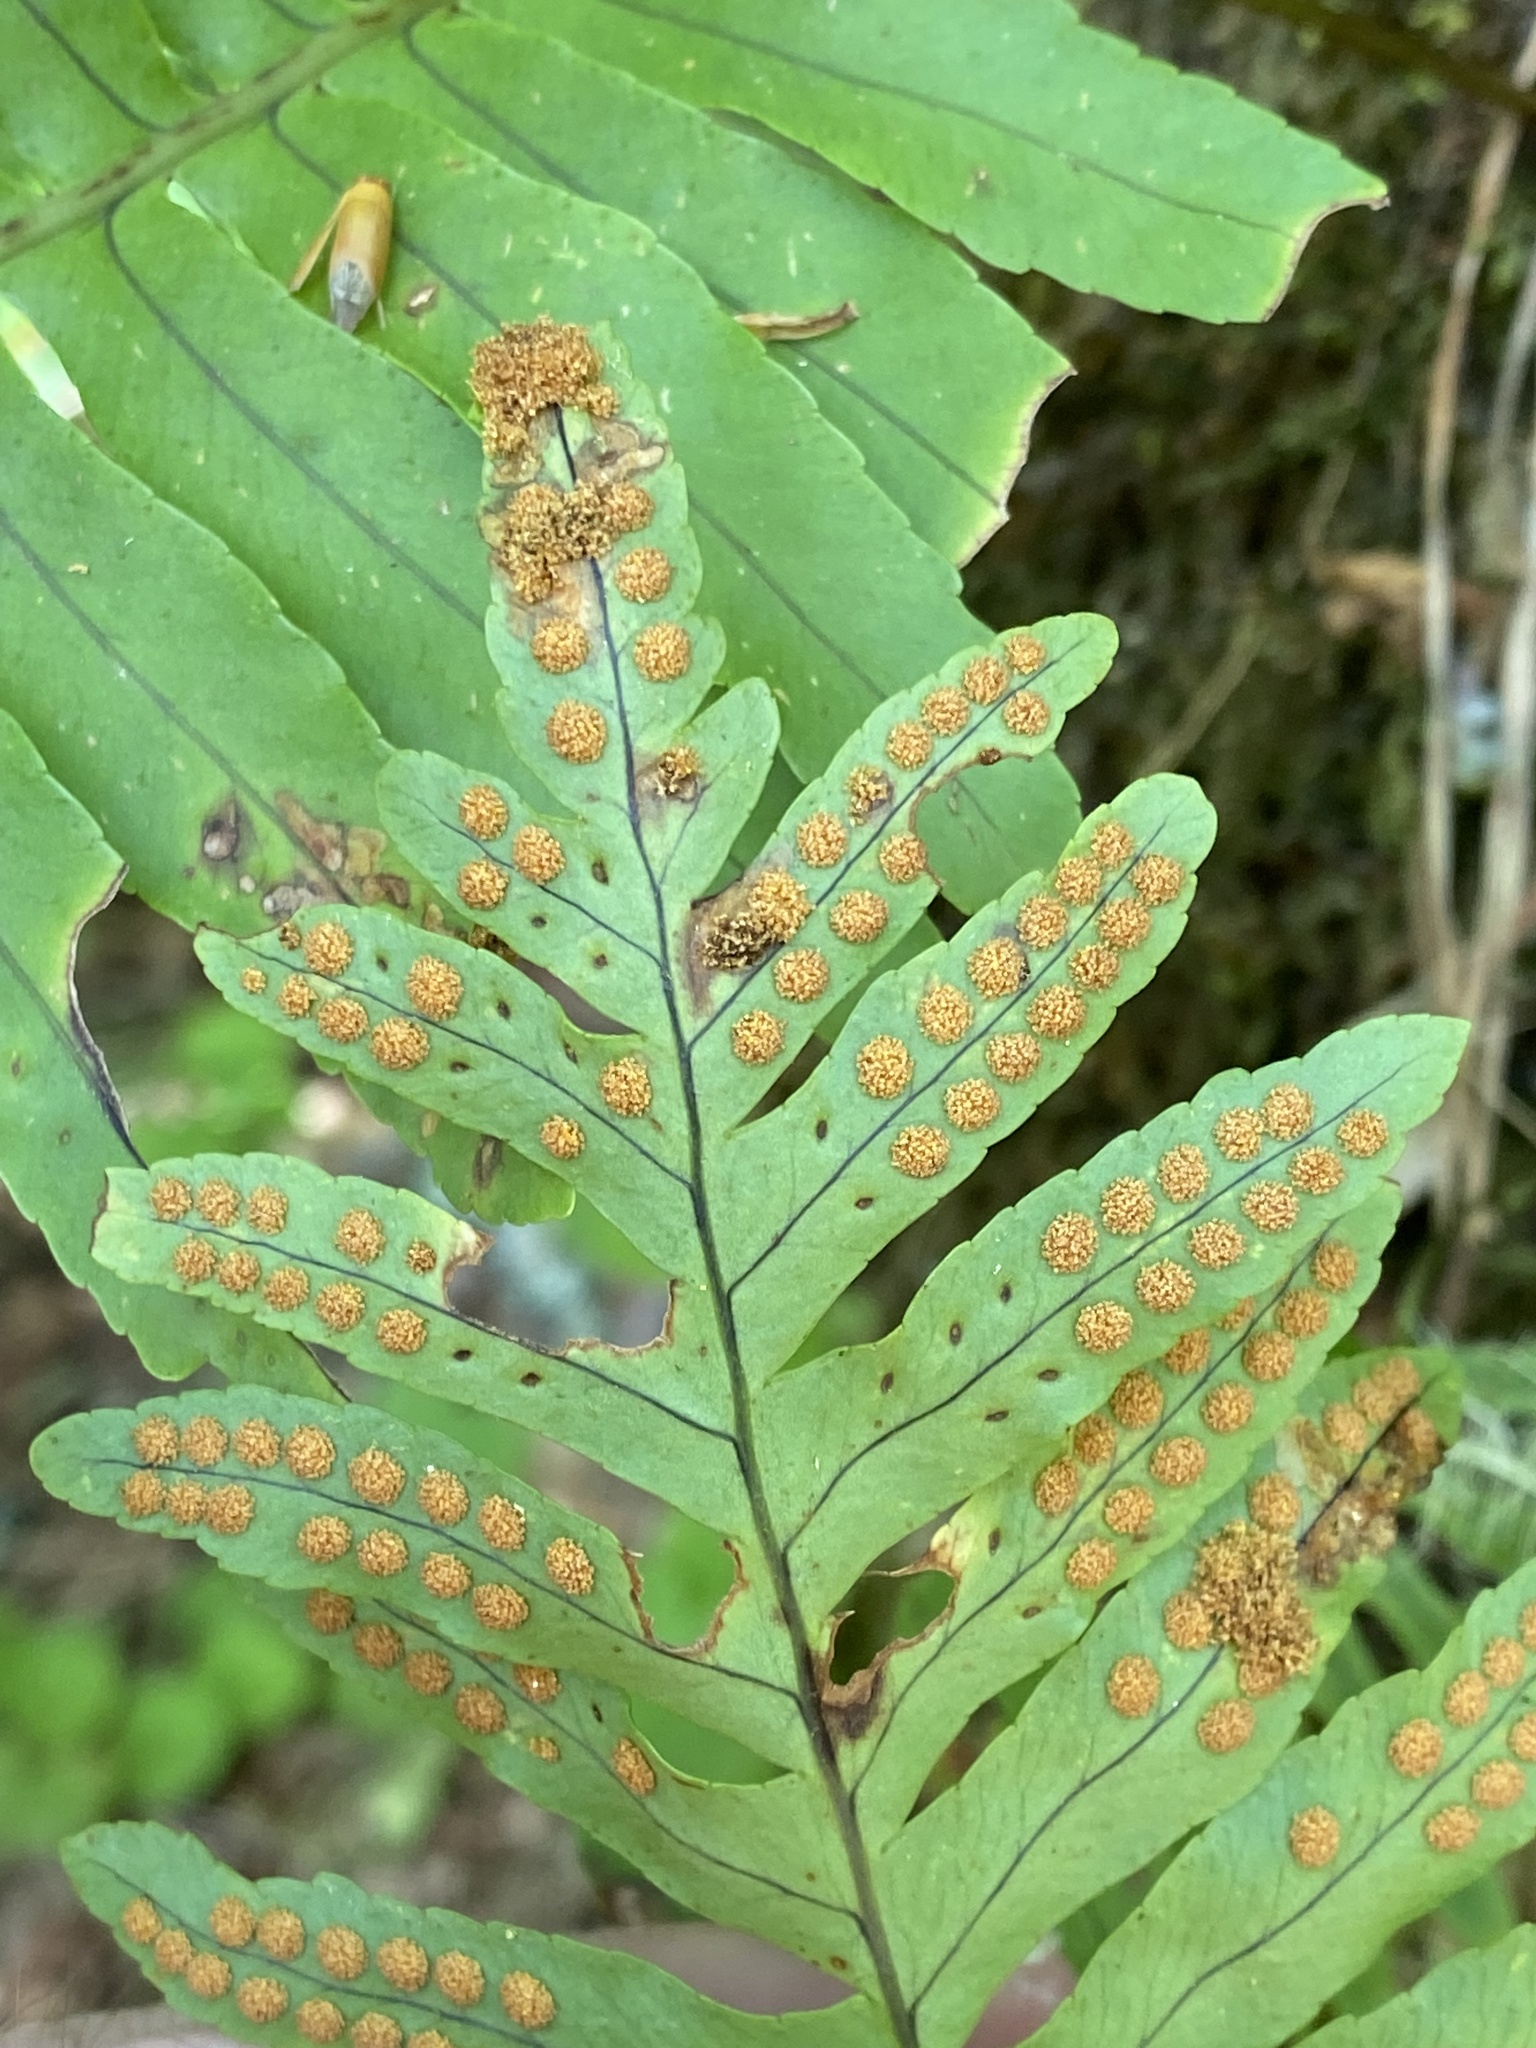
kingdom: Plantae
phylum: Tracheophyta
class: Polypodiopsida
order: Polypodiales
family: Polypodiaceae
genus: Polypodium
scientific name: Polypodium macaronesicum
